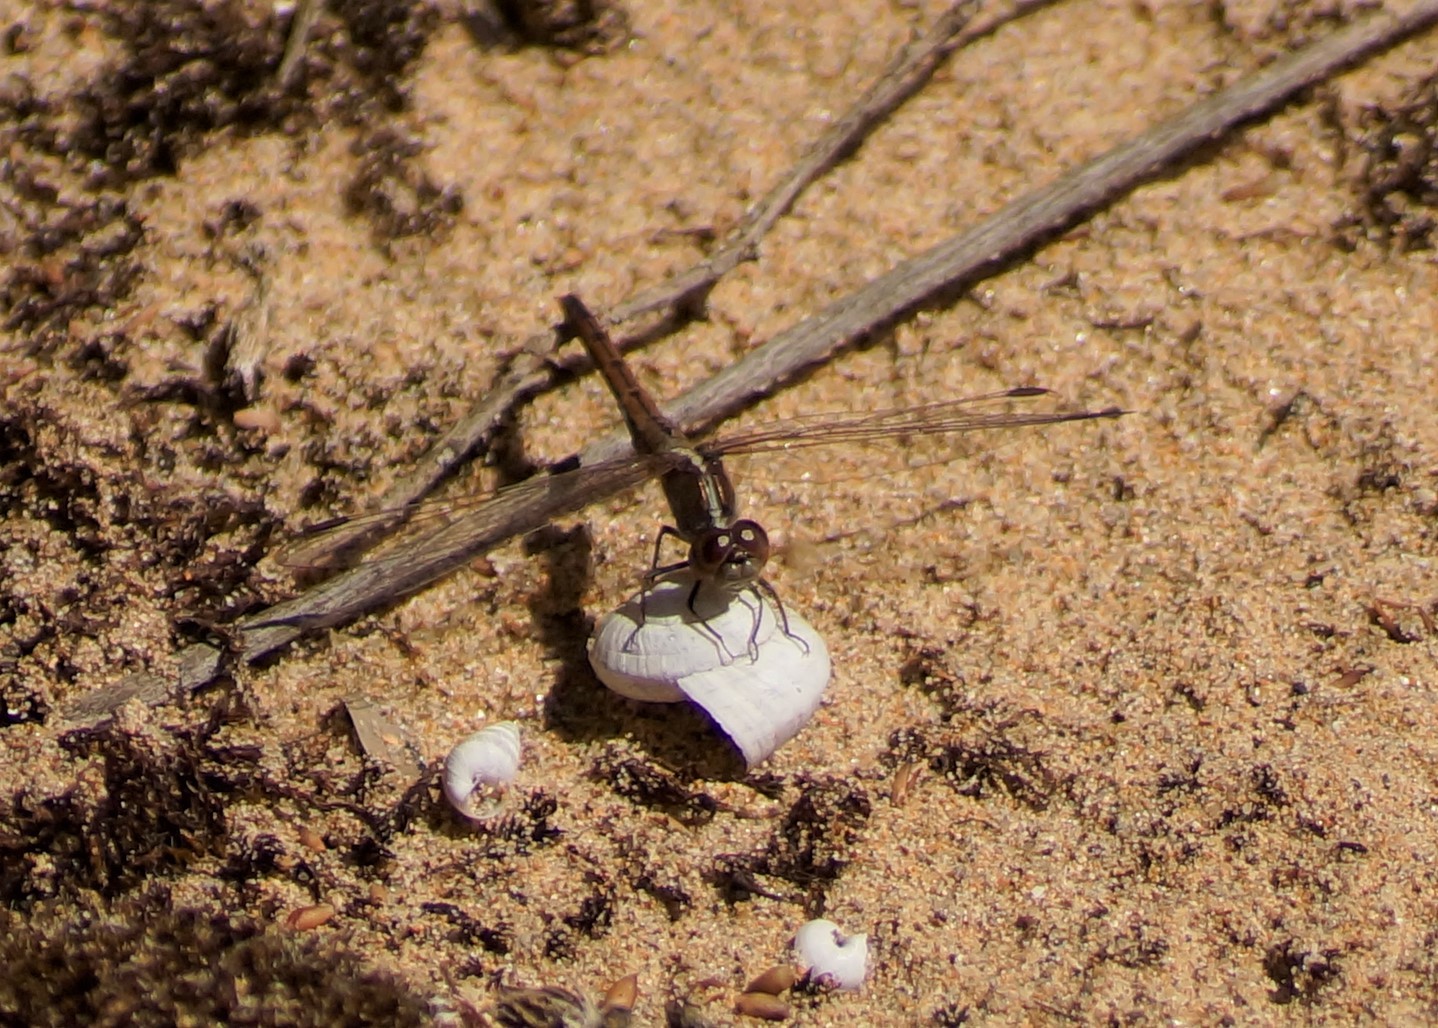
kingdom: Animalia
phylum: Arthropoda
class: Insecta
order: Odonata
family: Libellulidae
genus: Diplacodes
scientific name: Diplacodes bipunctata
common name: Red percher dragonfly
